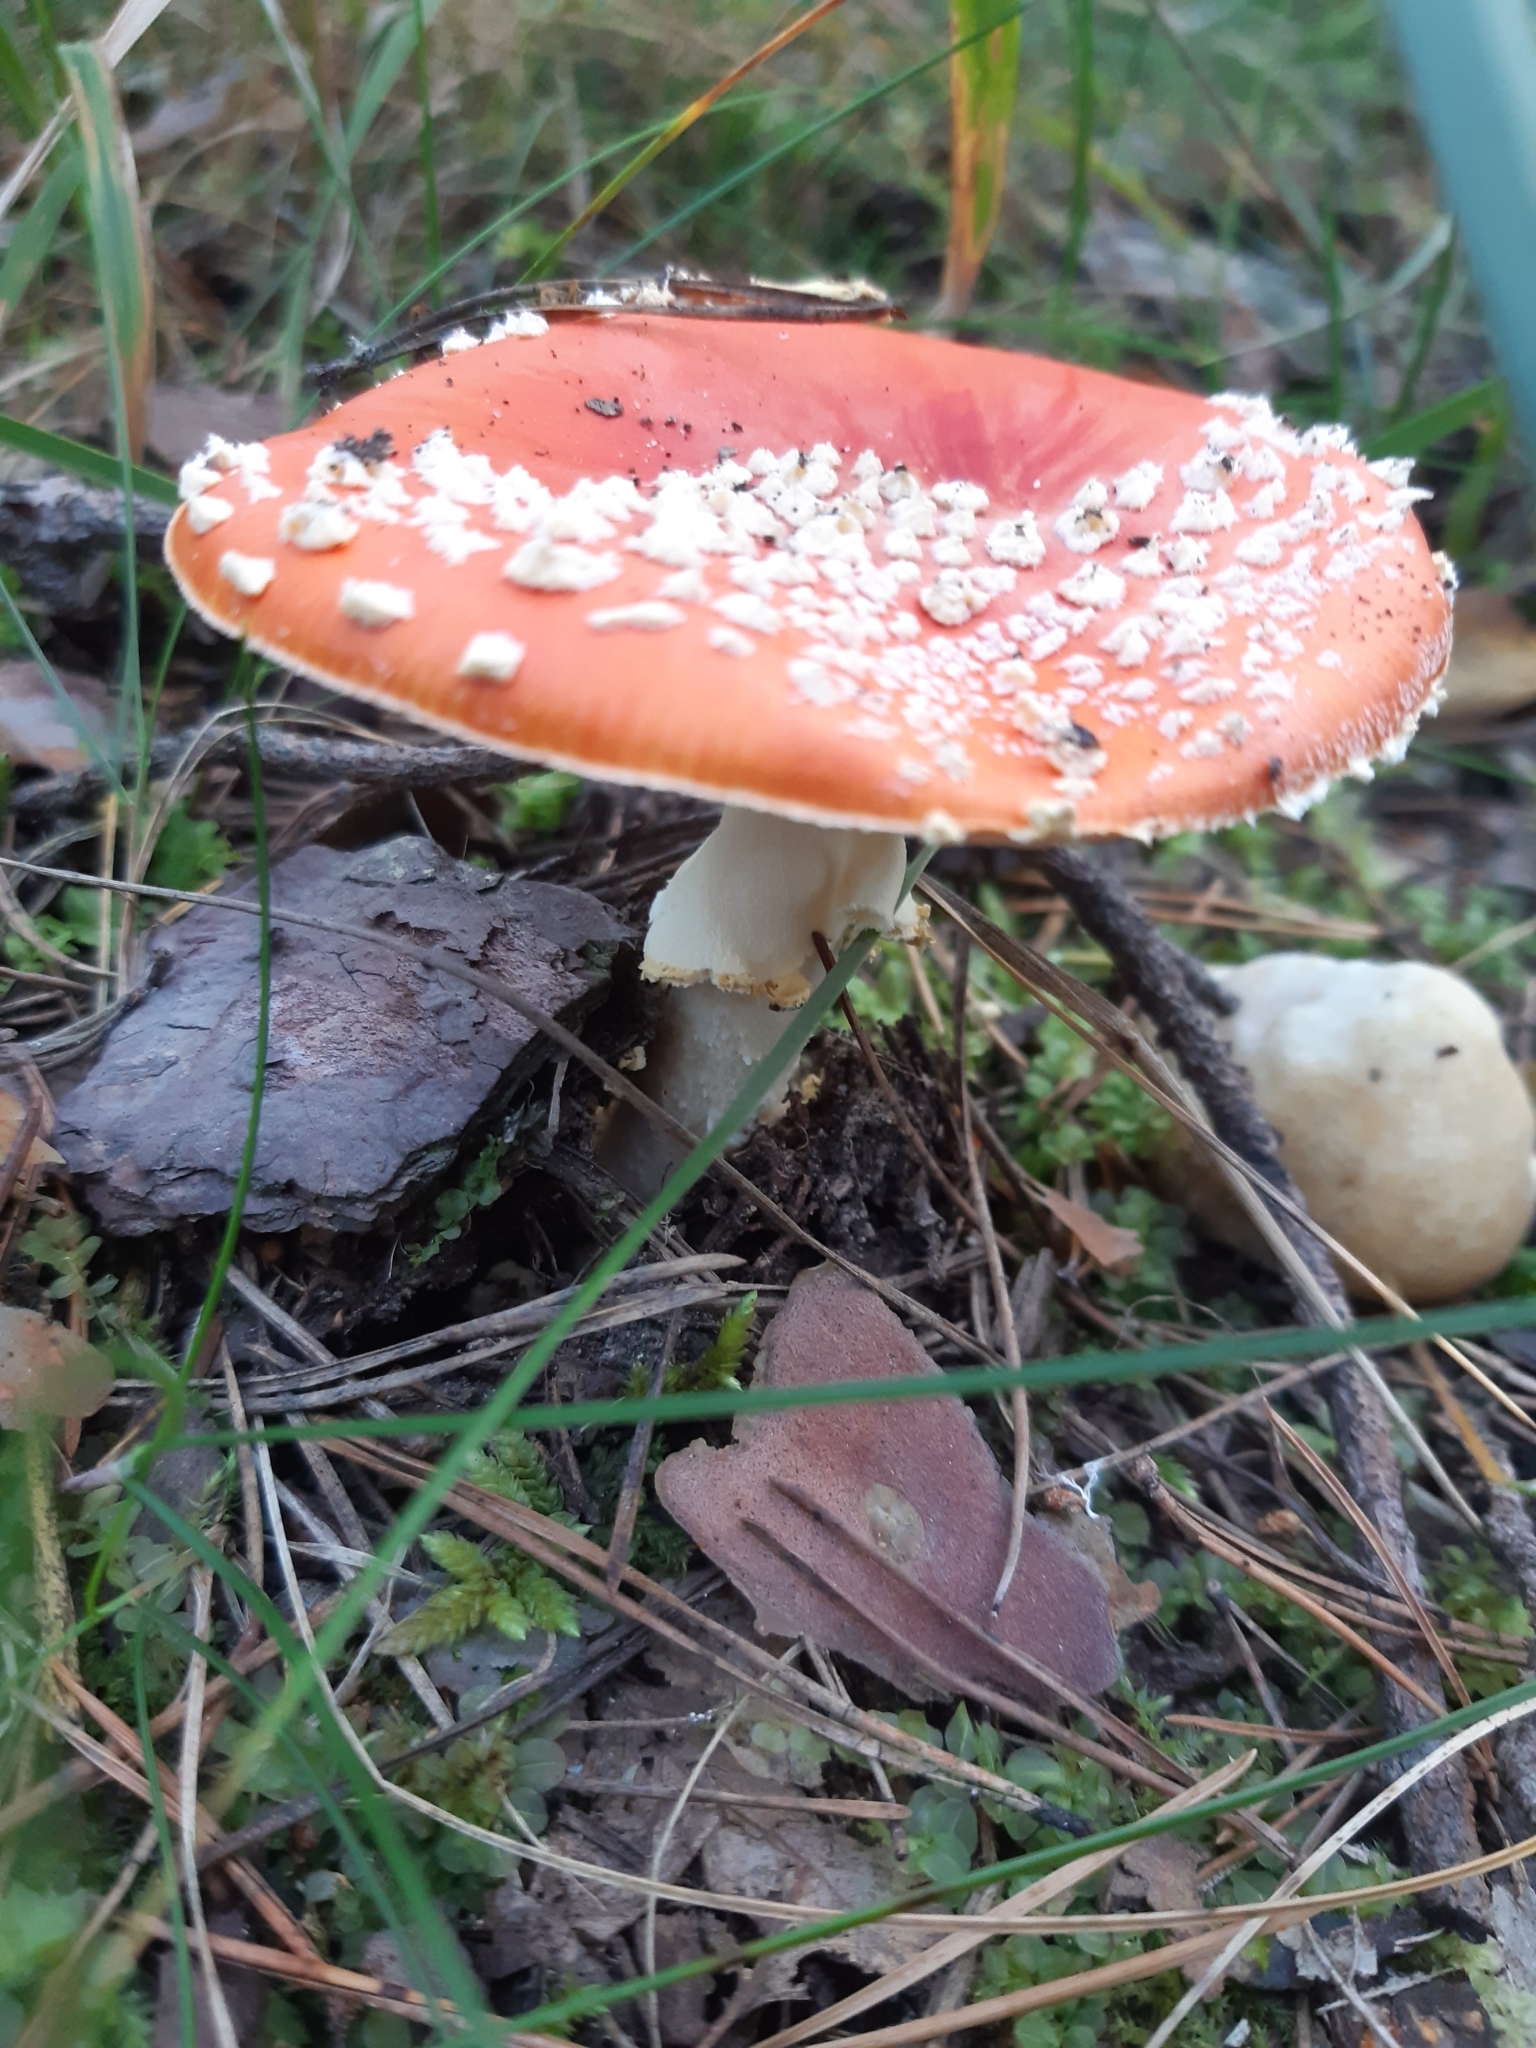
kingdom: Fungi
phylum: Basidiomycota
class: Agaricomycetes
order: Agaricales
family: Amanitaceae
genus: Amanita
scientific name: Amanita muscaria
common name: Fly agaric
